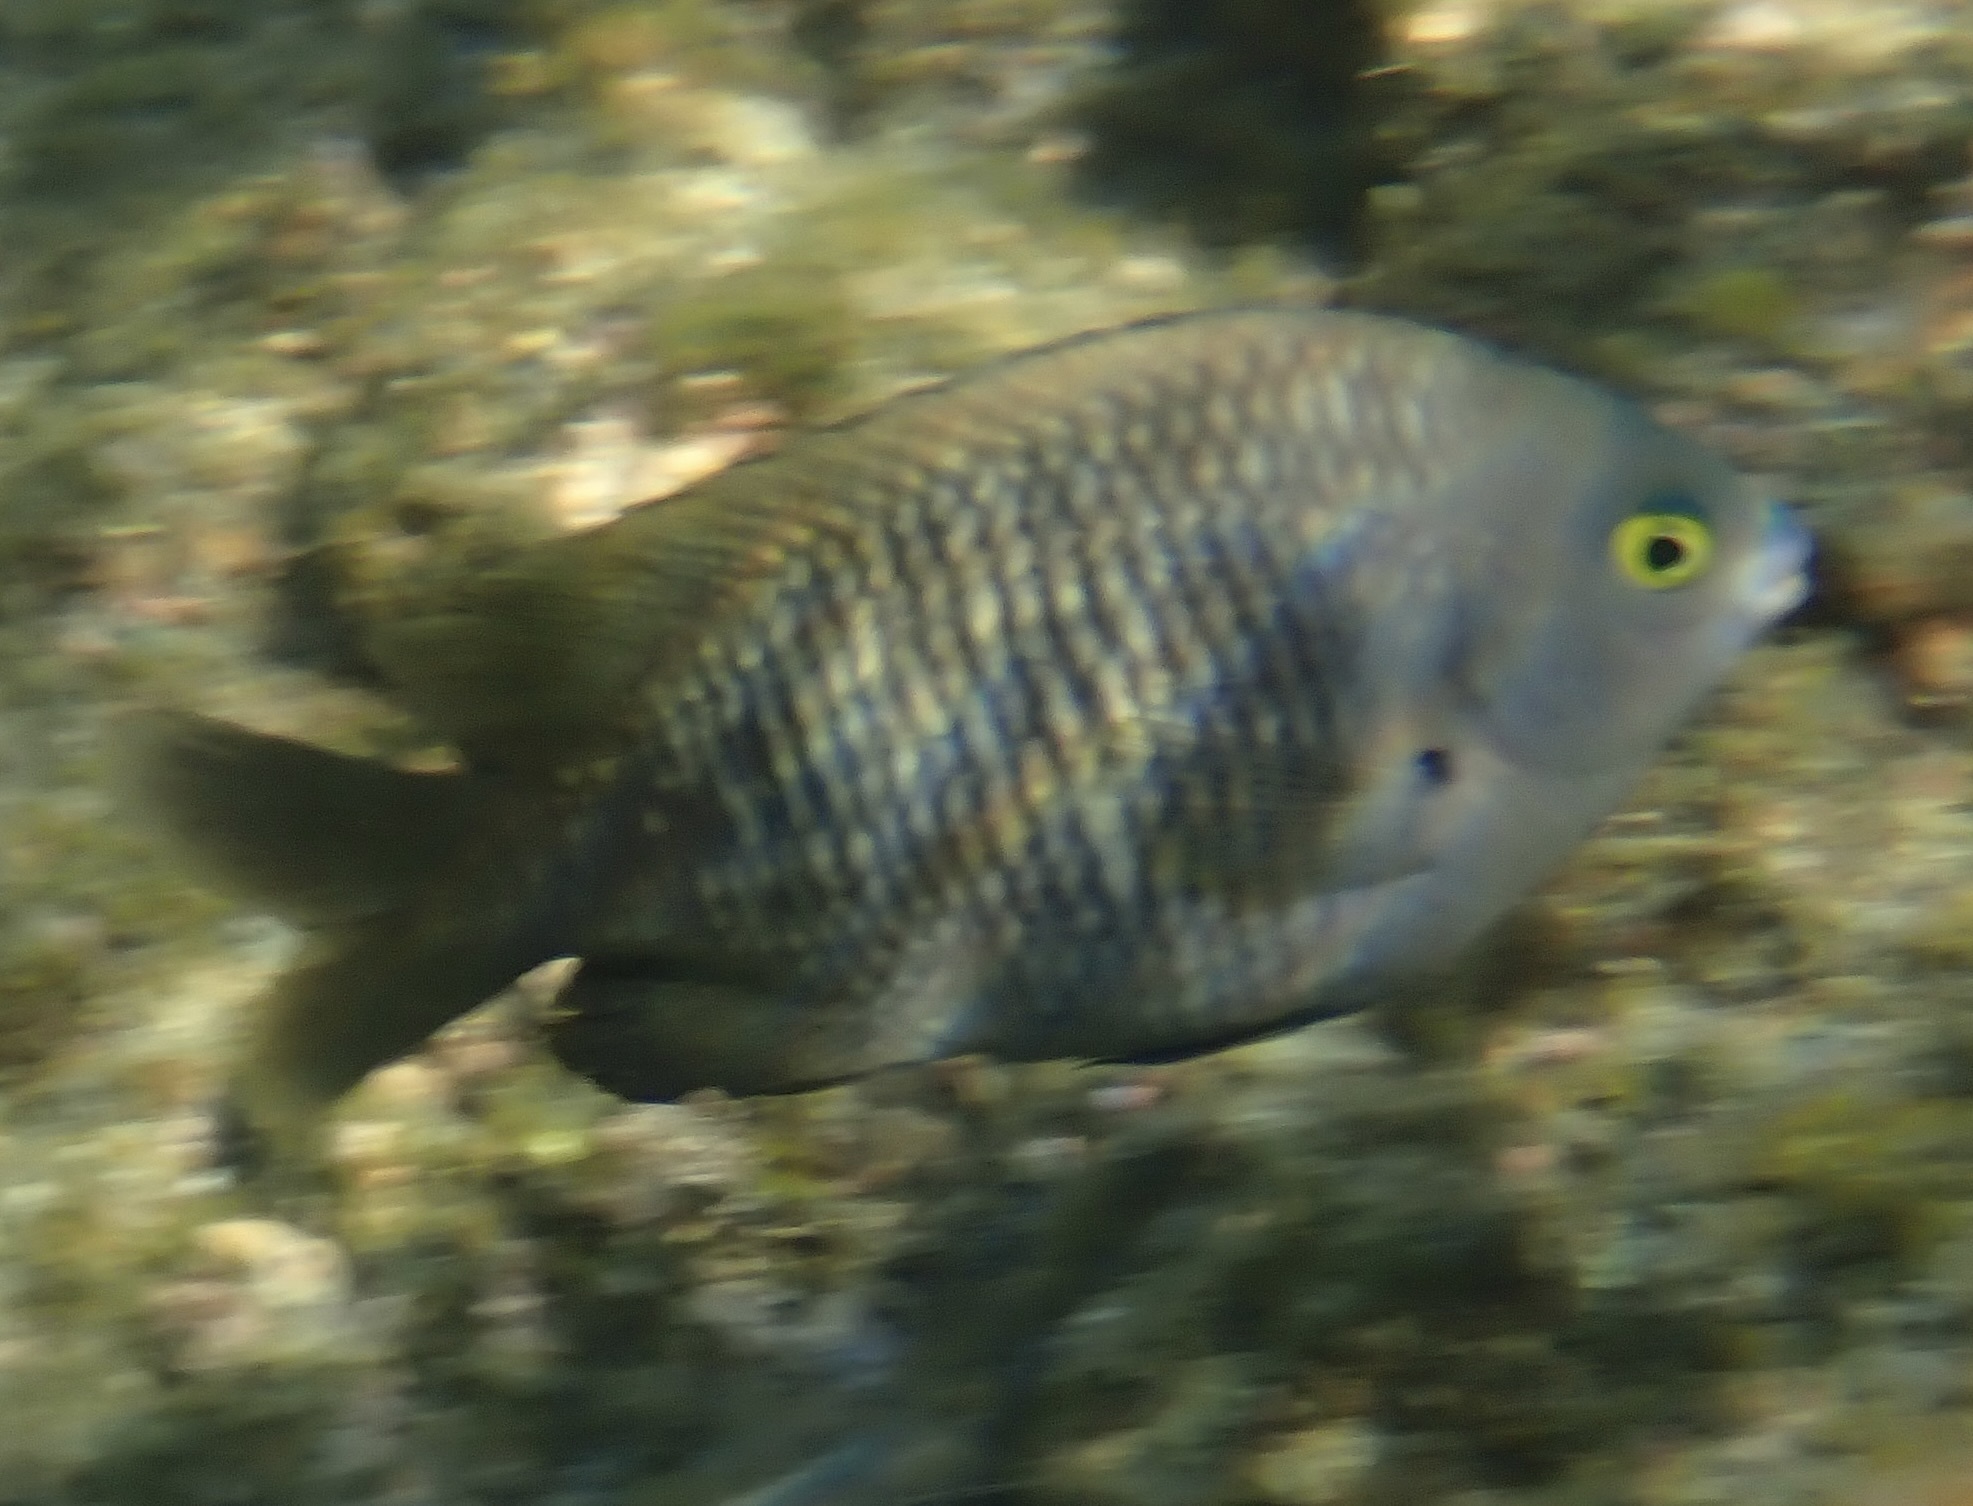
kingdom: Animalia
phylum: Chordata
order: Perciformes
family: Pomacentridae
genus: Stegastes
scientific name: Stegastes fasciolatus
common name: Pacific gregory
